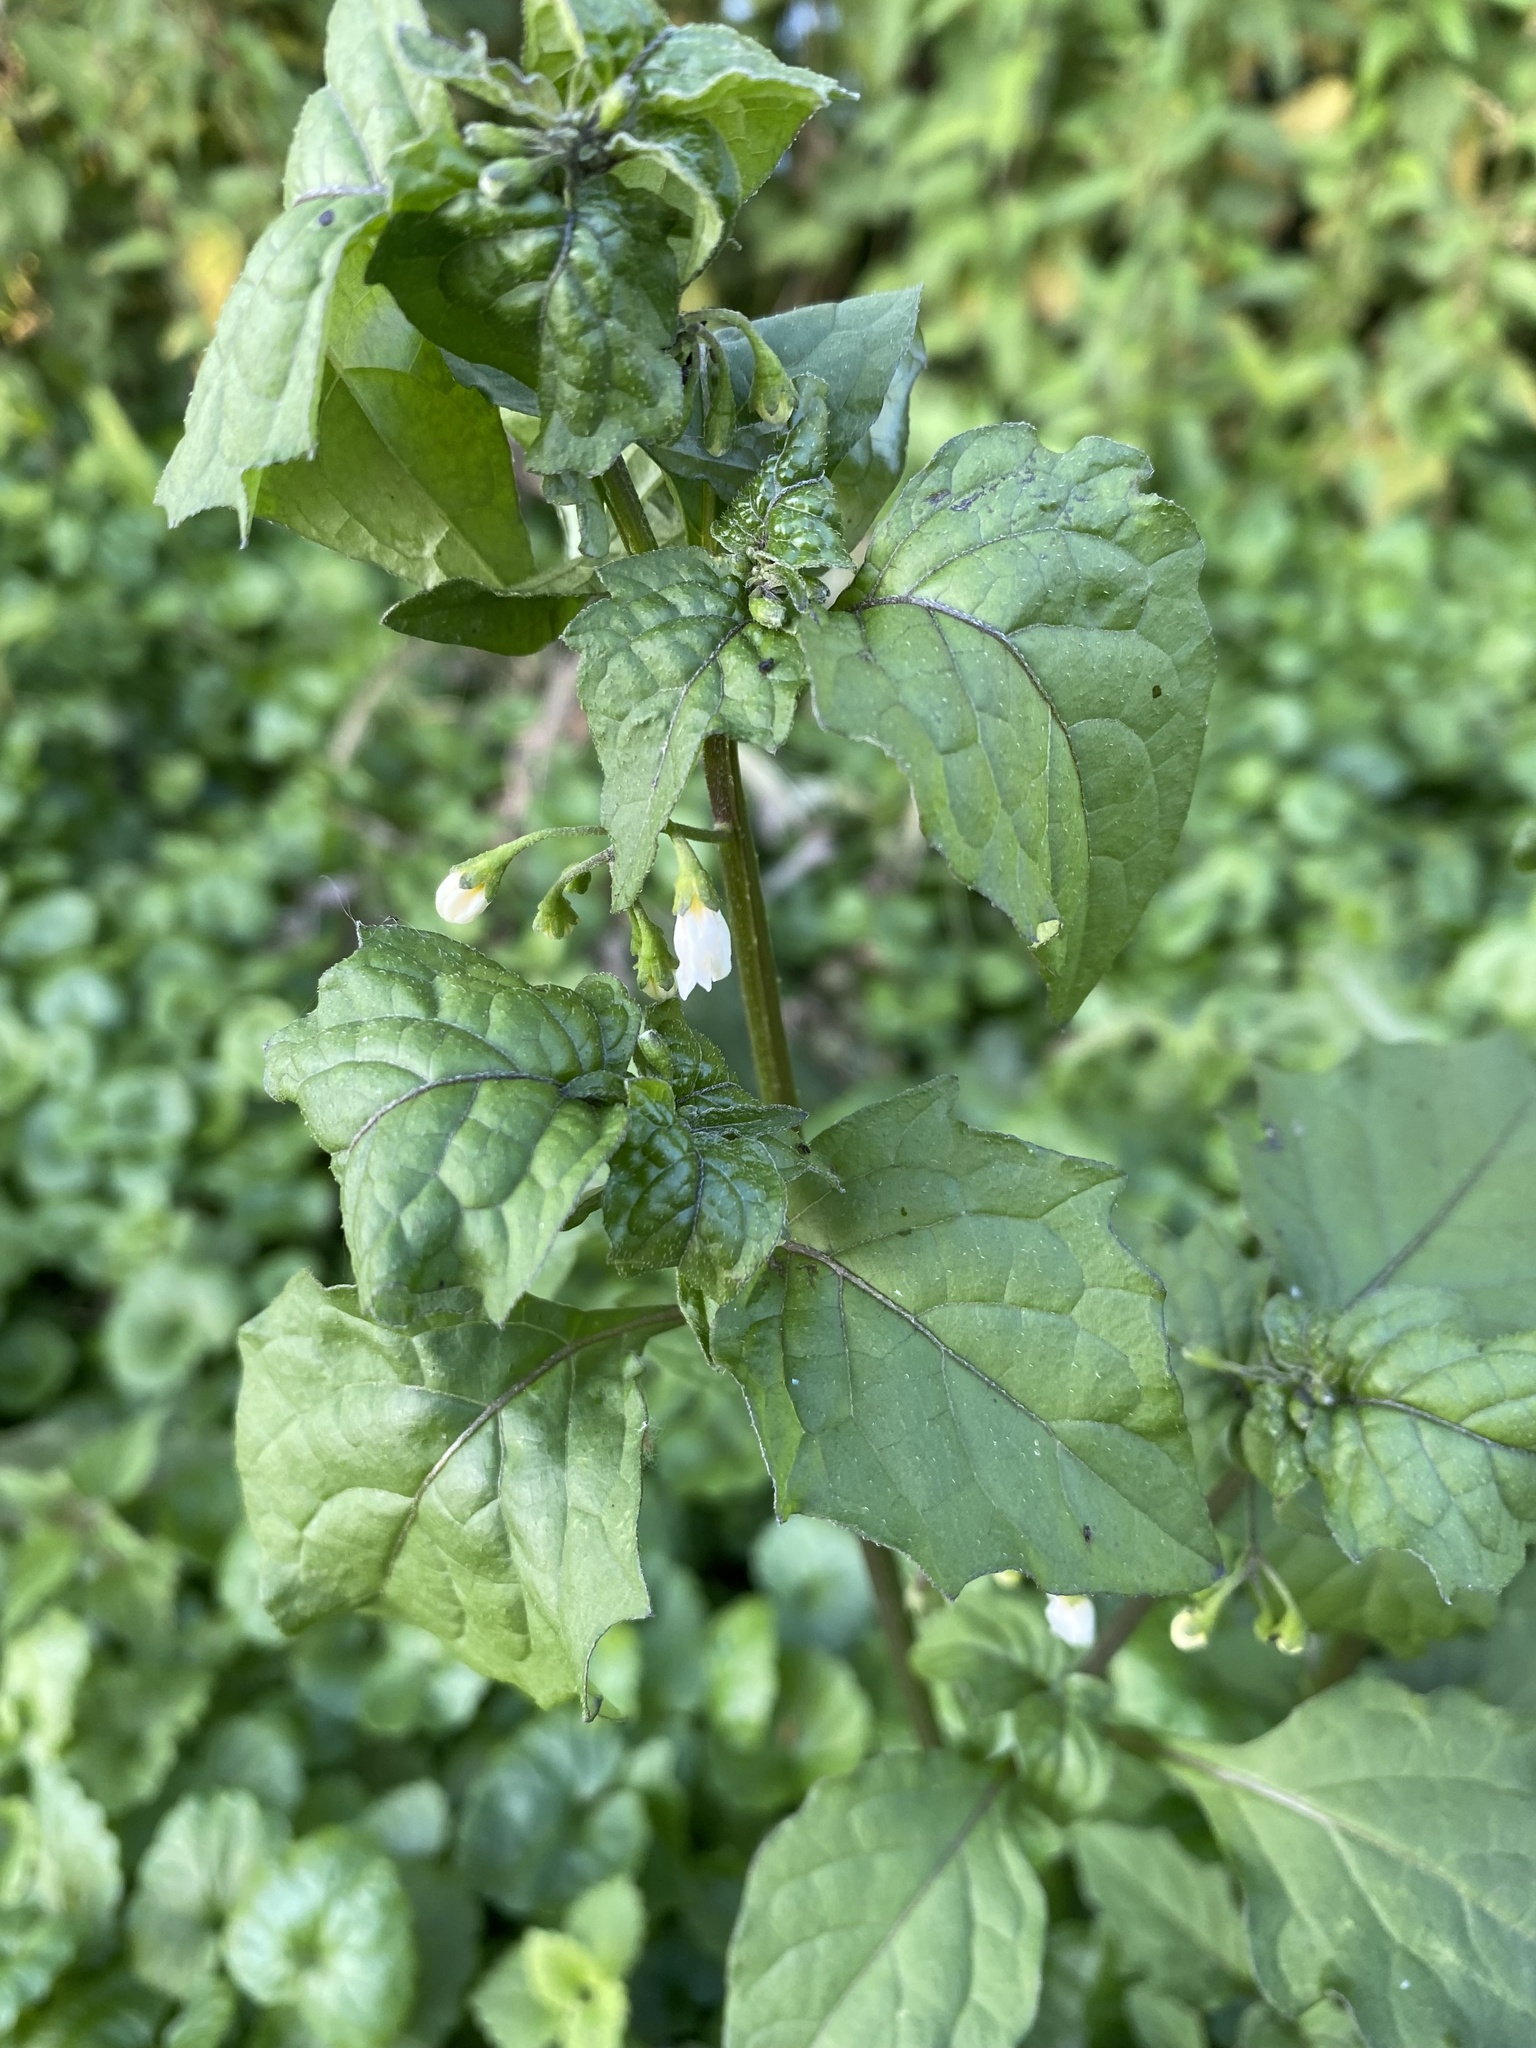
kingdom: Plantae
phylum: Tracheophyta
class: Magnoliopsida
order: Solanales
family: Solanaceae
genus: Solanum
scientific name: Solanum nigrum
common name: Black nightshade
